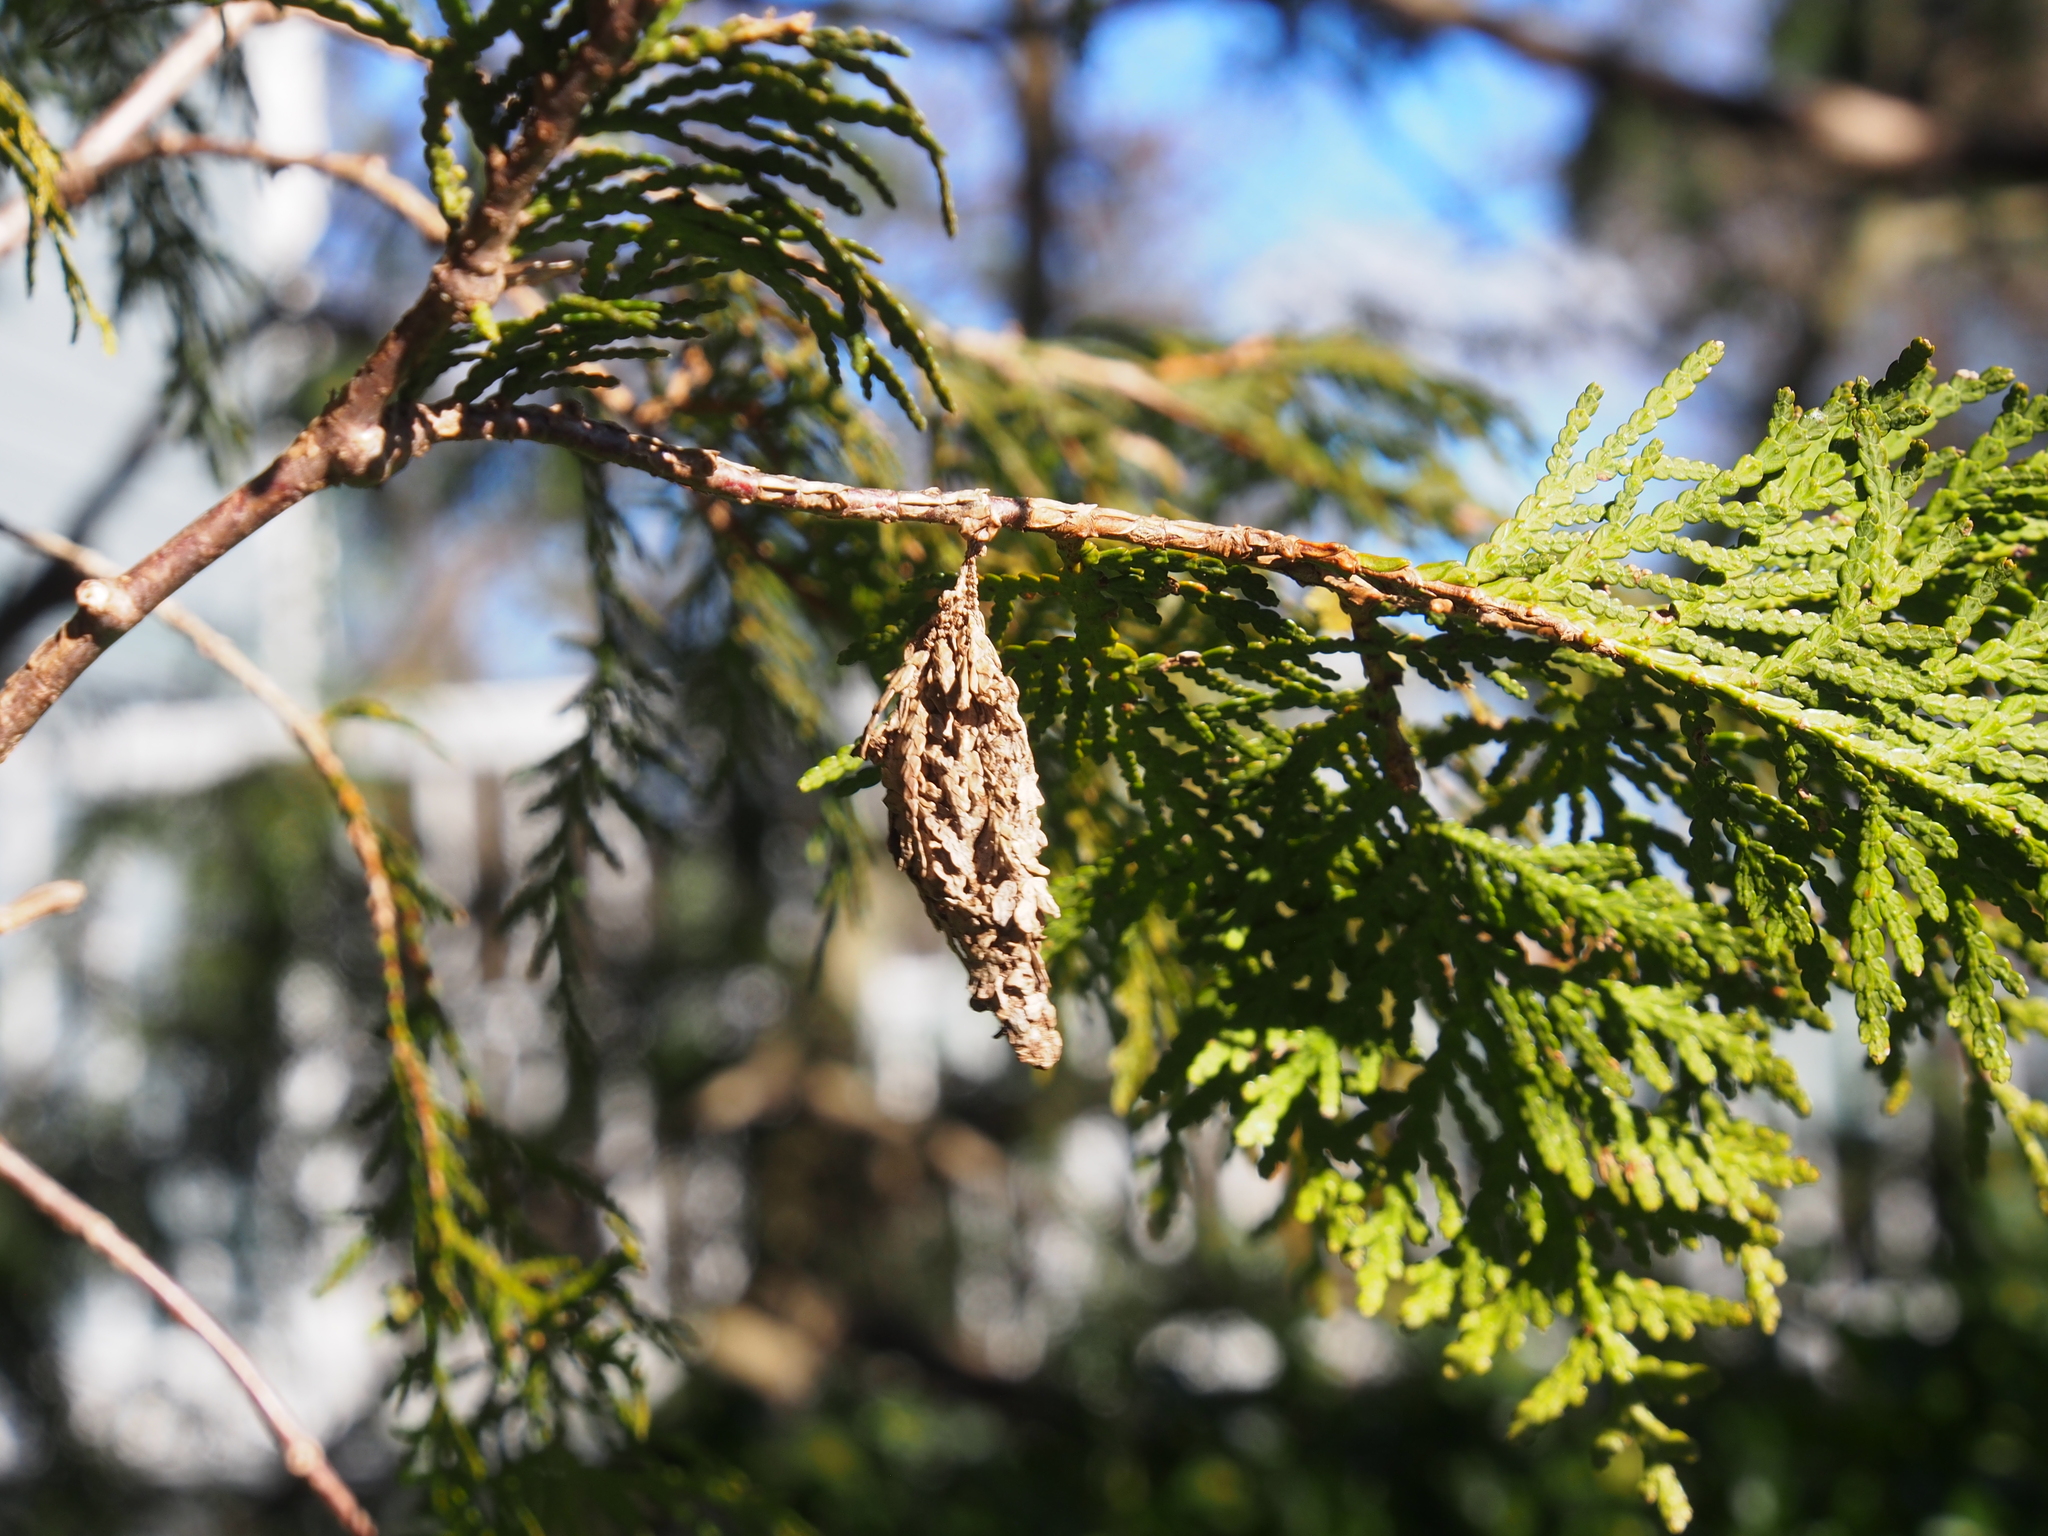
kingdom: Animalia
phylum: Arthropoda
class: Insecta
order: Lepidoptera
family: Psychidae
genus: Thyridopteryx
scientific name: Thyridopteryx ephemeraeformis
